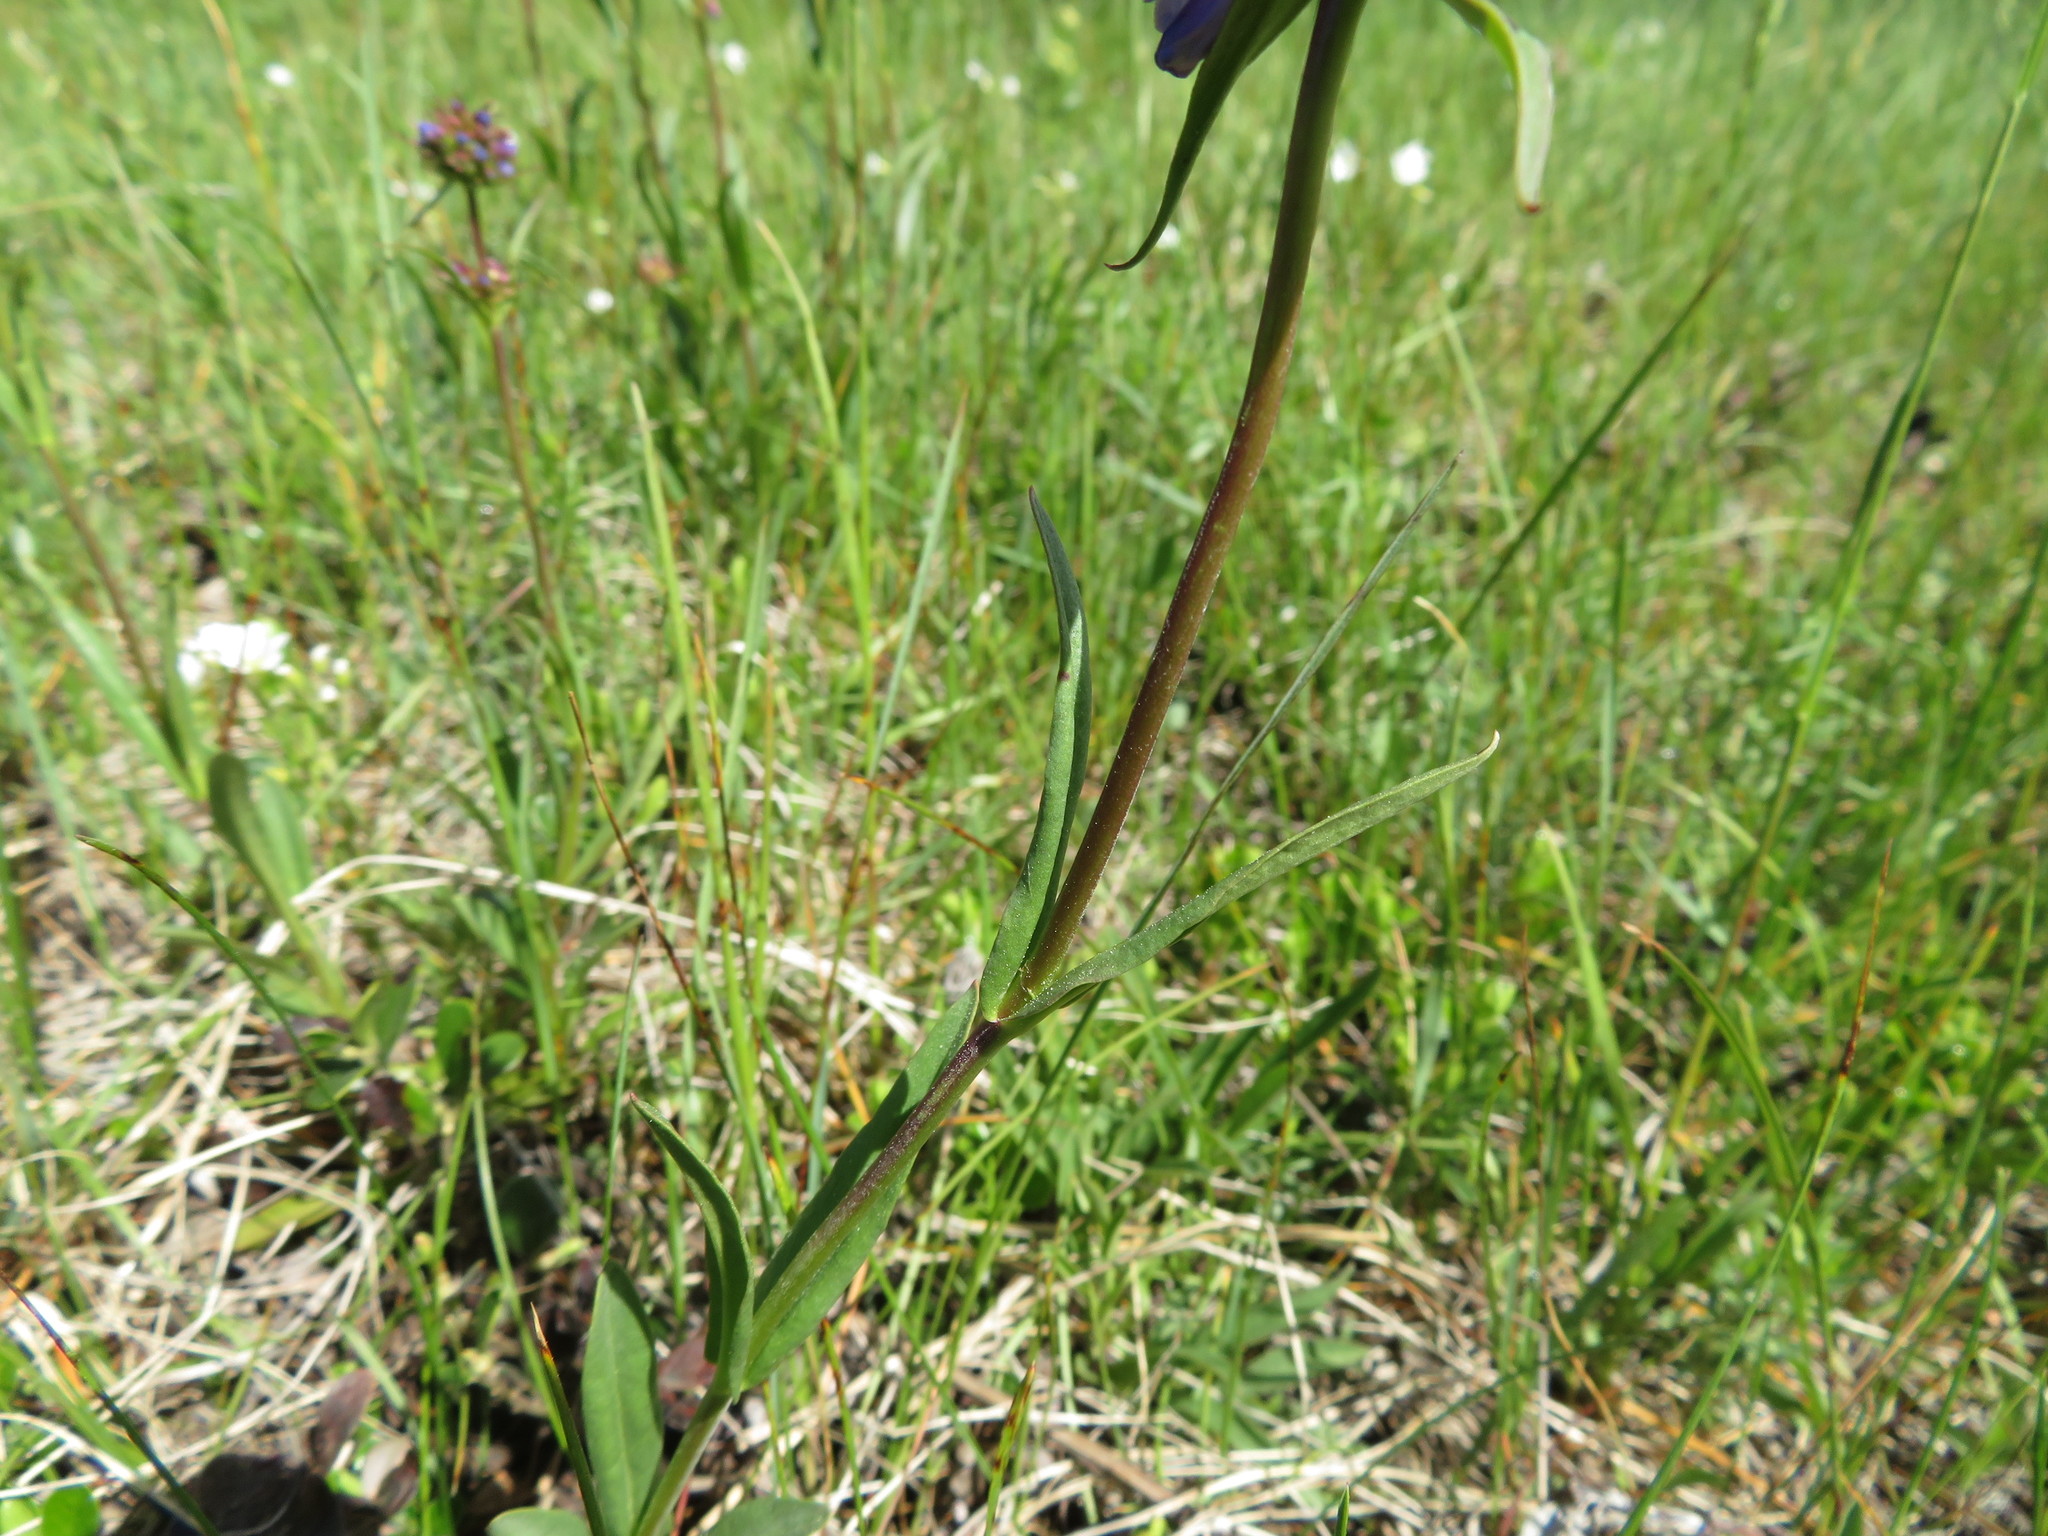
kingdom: Plantae
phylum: Tracheophyta
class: Magnoliopsida
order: Lamiales
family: Plantaginaceae
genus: Penstemon
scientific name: Penstemon procerus
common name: Small-flower penstemon
